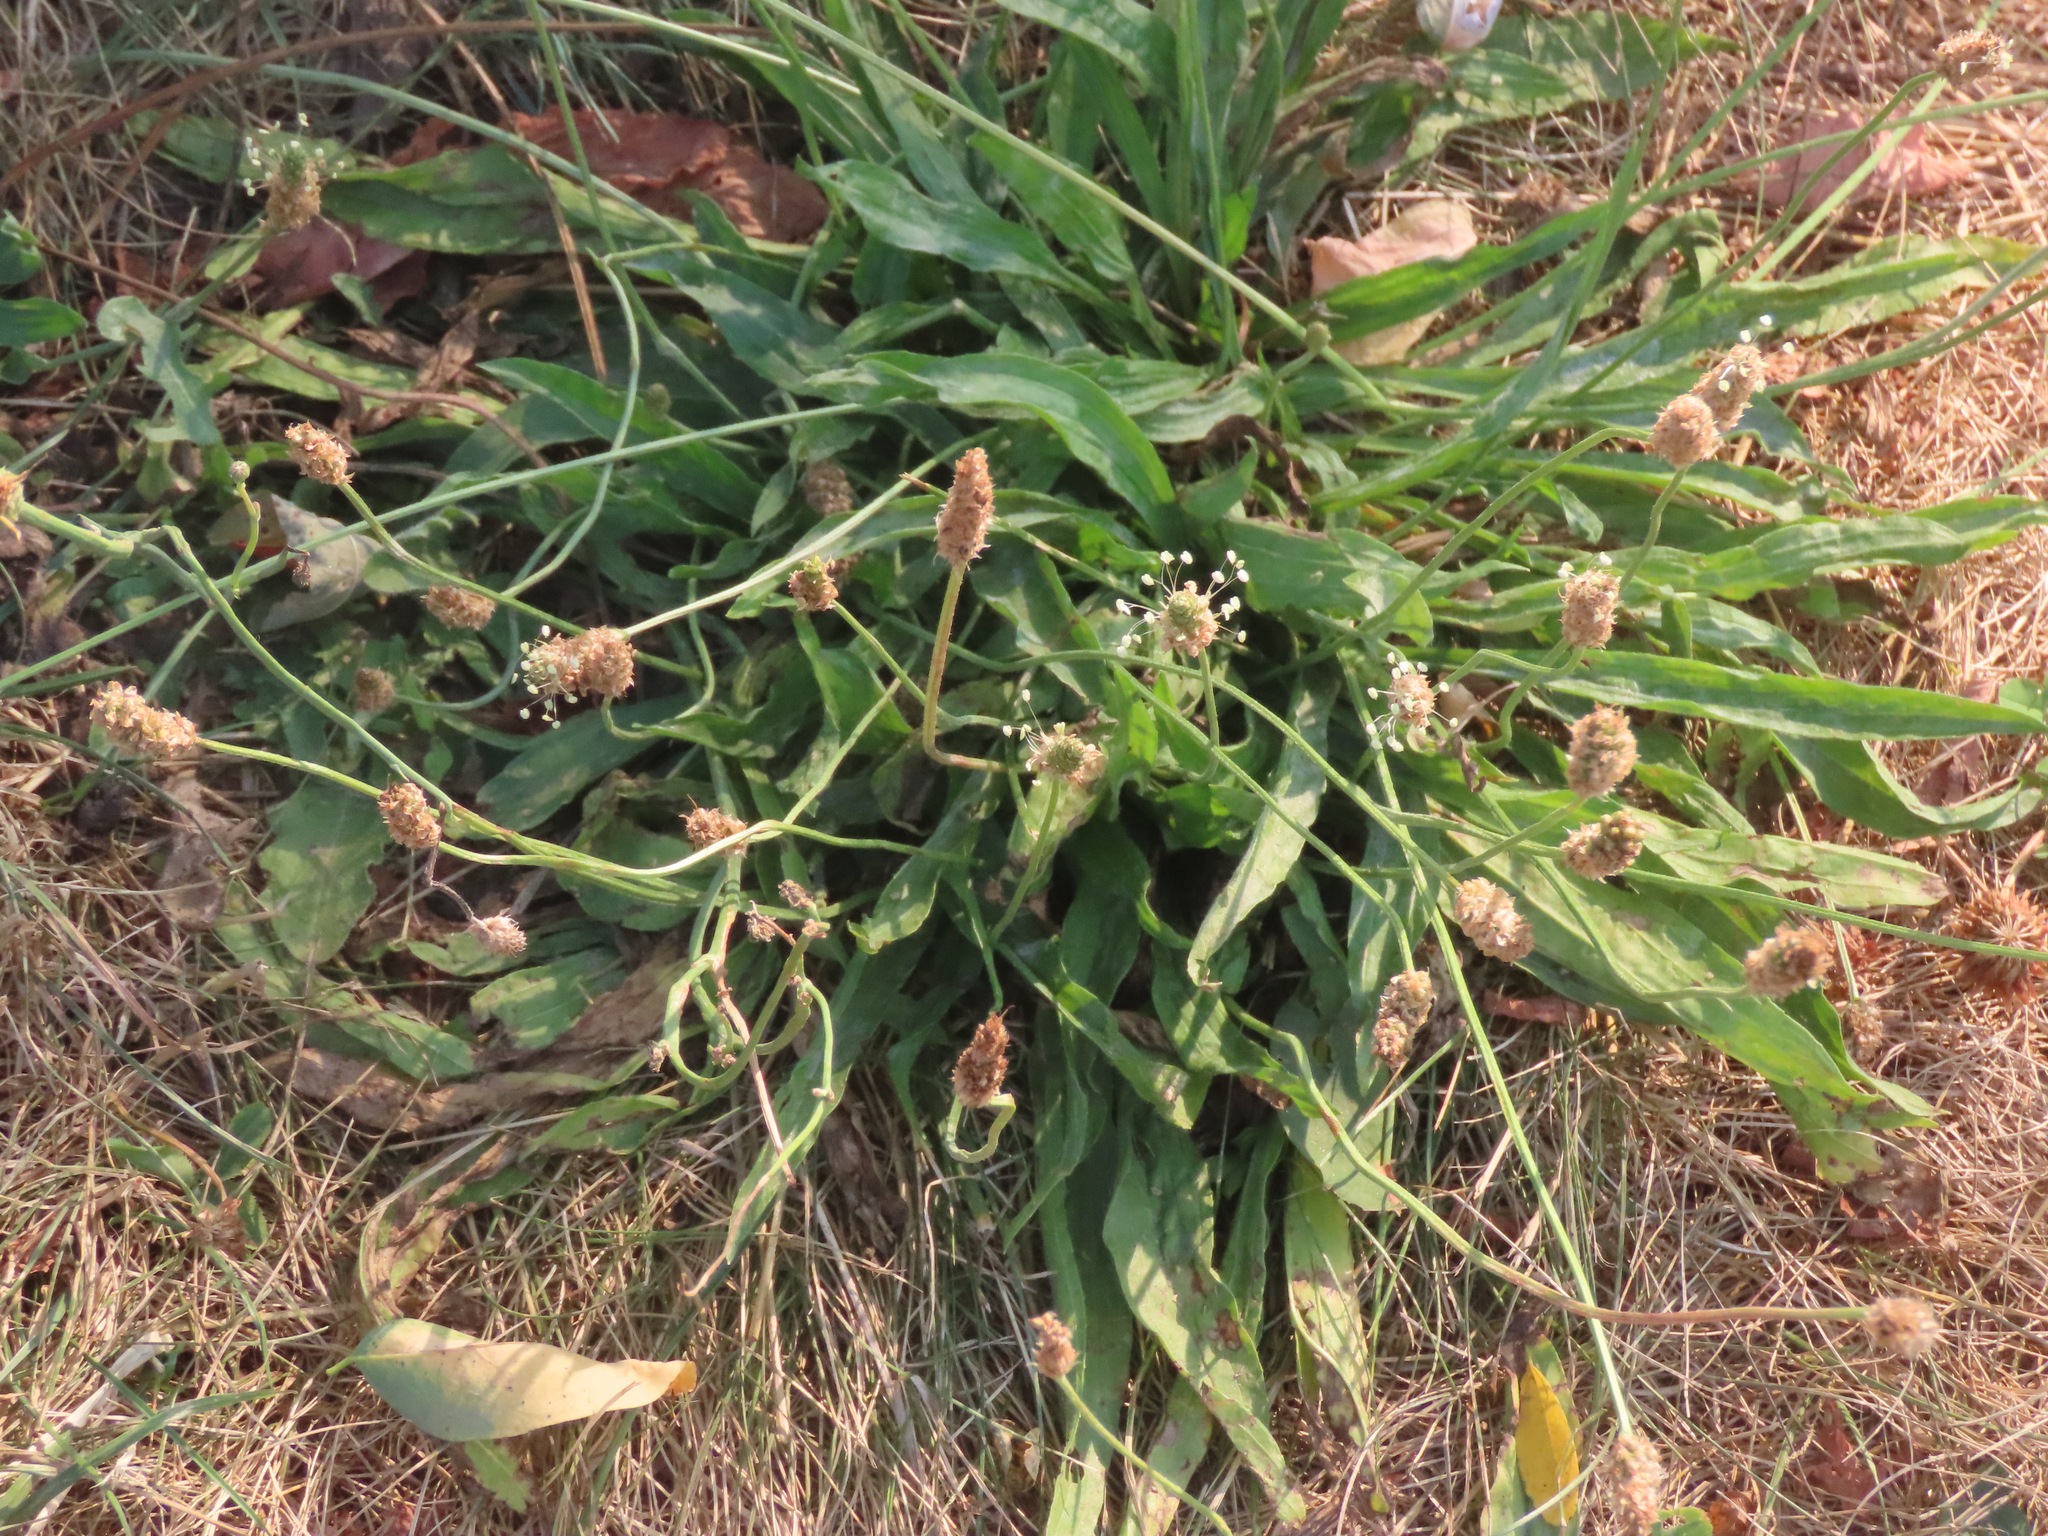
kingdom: Plantae
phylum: Tracheophyta
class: Magnoliopsida
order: Lamiales
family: Plantaginaceae
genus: Plantago
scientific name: Plantago lanceolata
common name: Ribwort plantain
